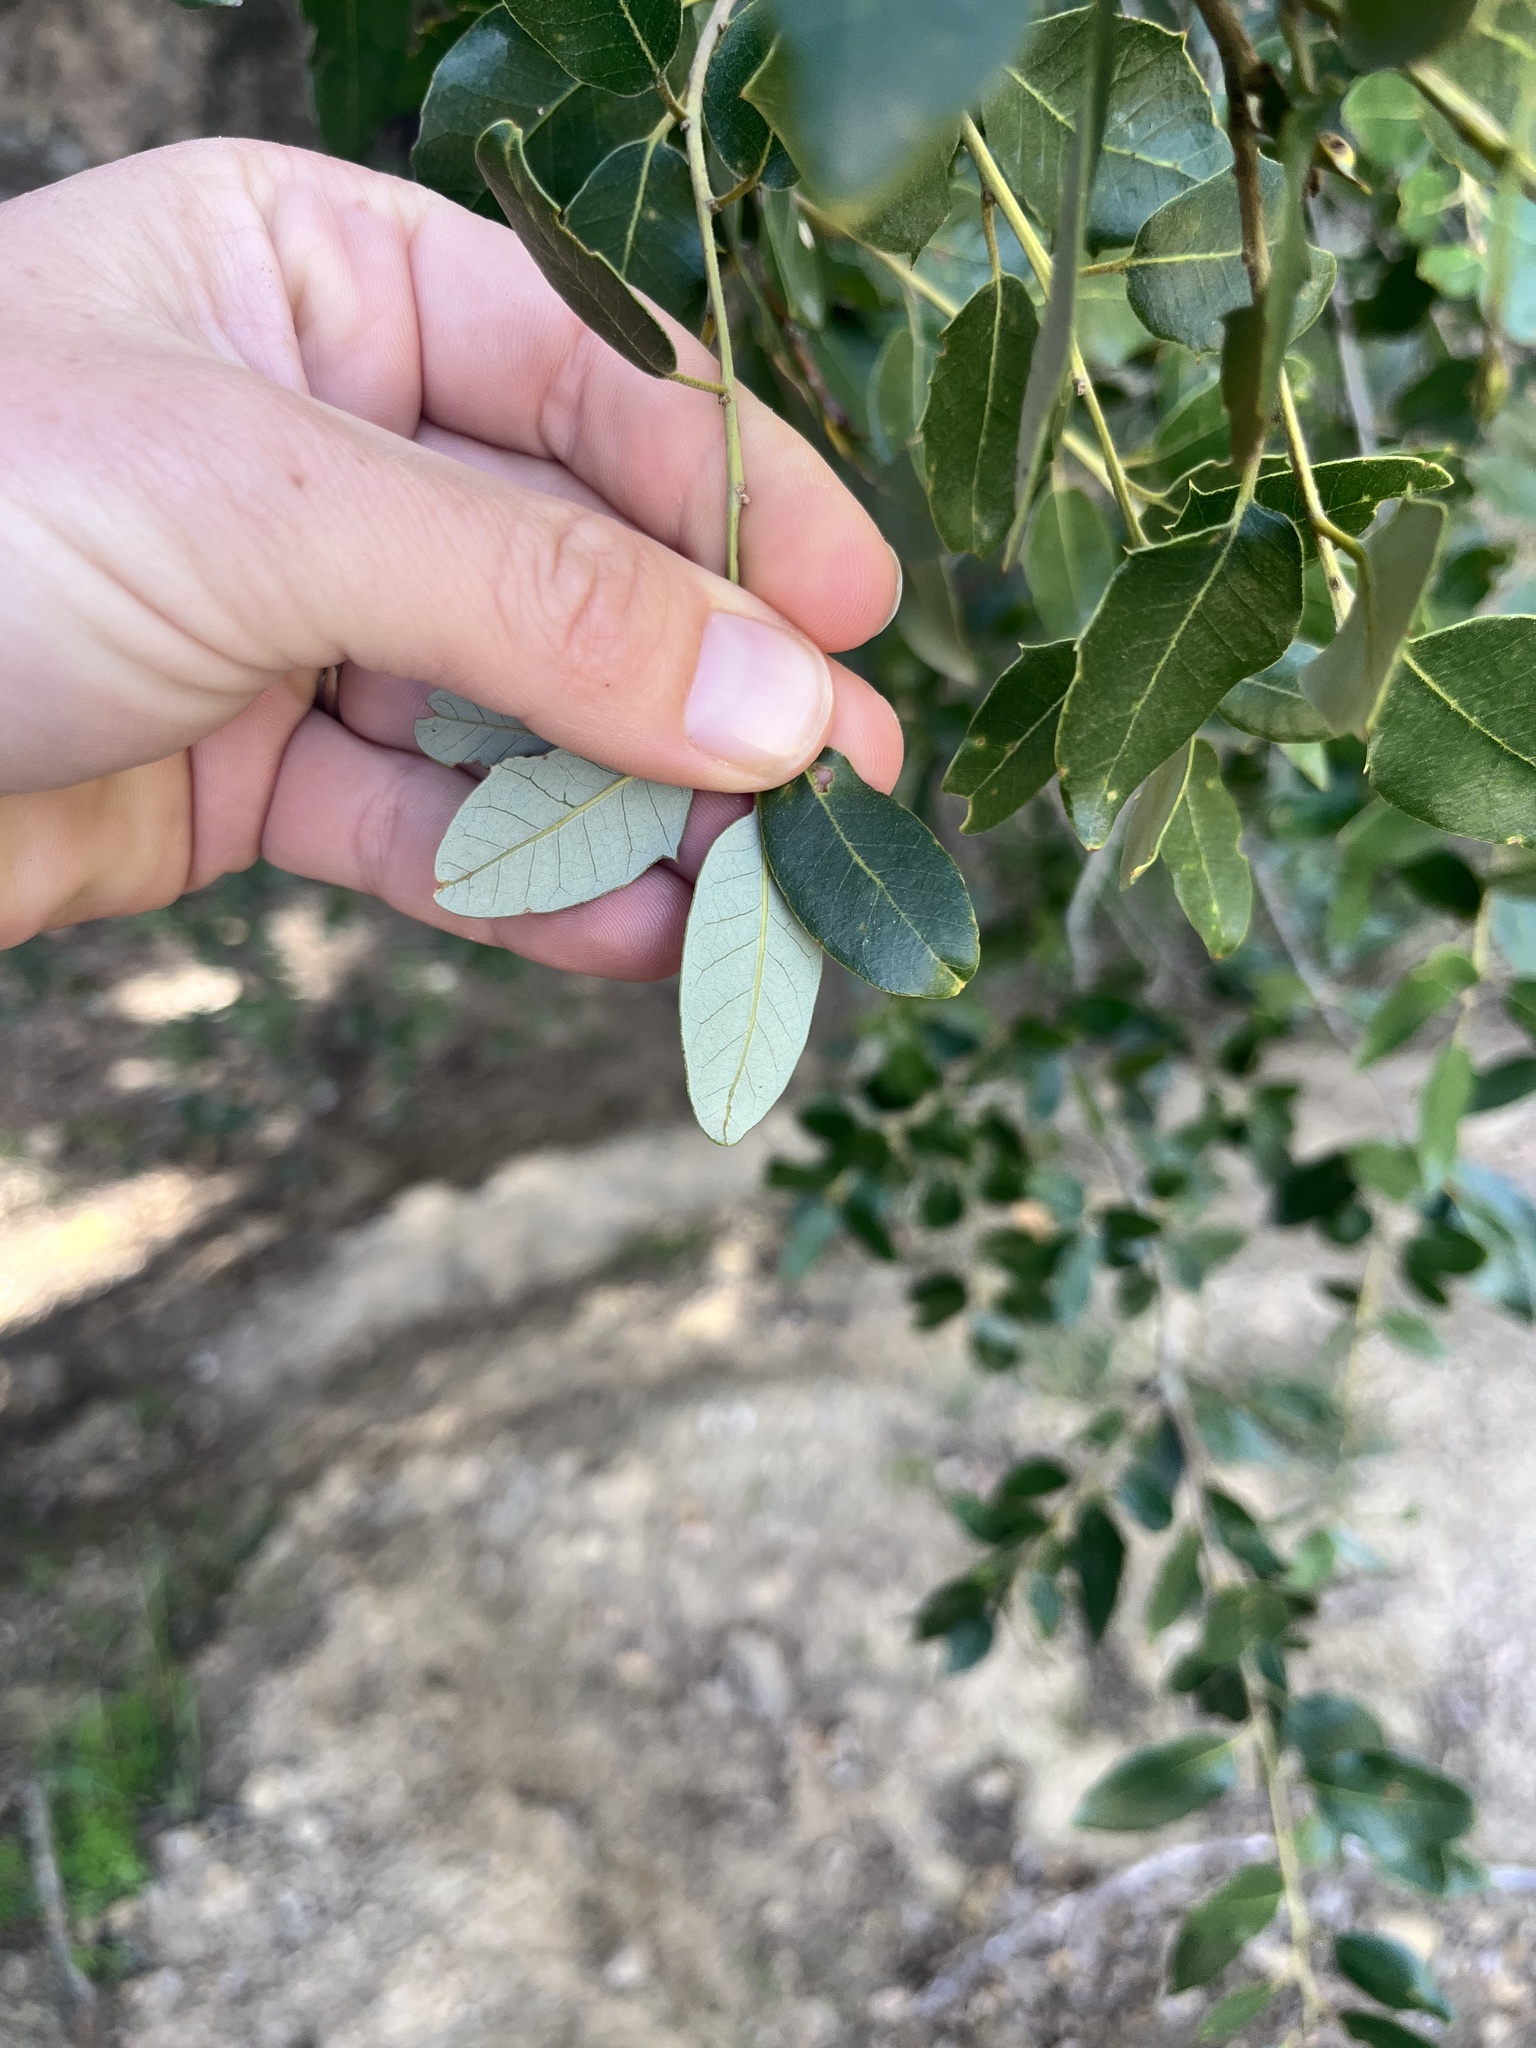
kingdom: Plantae
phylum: Tracheophyta
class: Magnoliopsida
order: Fagales
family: Fagaceae
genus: Quercus
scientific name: Quercus chrysolepis
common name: Canyon live oak
